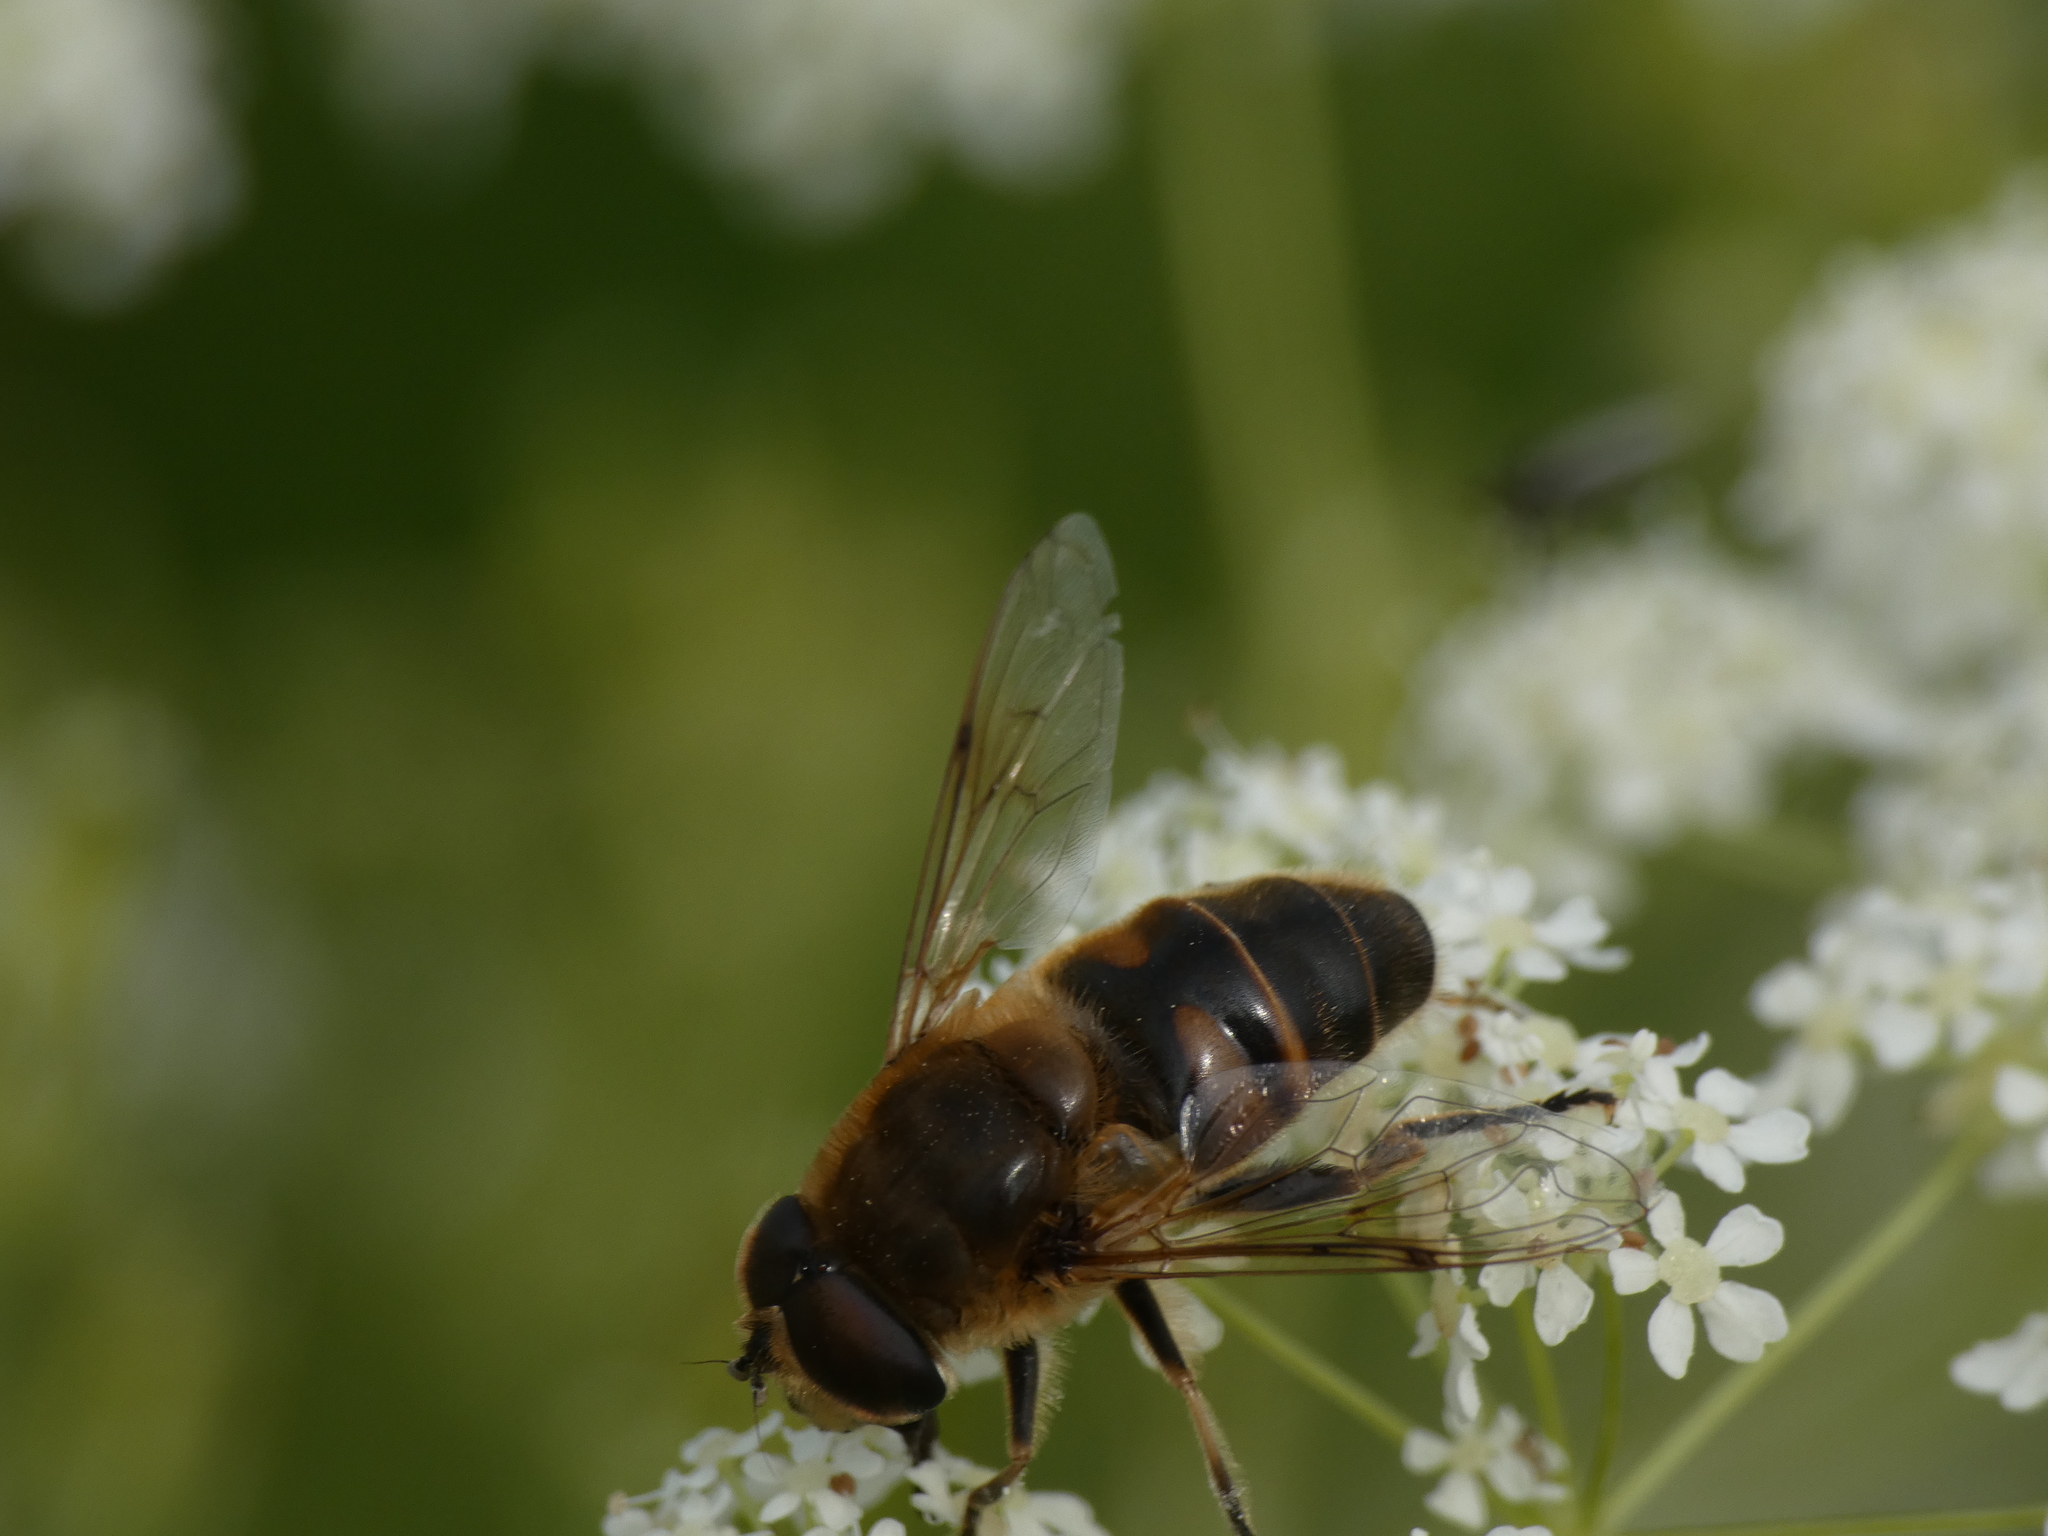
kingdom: Animalia
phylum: Arthropoda
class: Insecta
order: Diptera
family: Syrphidae
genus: Eristalis
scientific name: Eristalis tenax
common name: Drone fly
